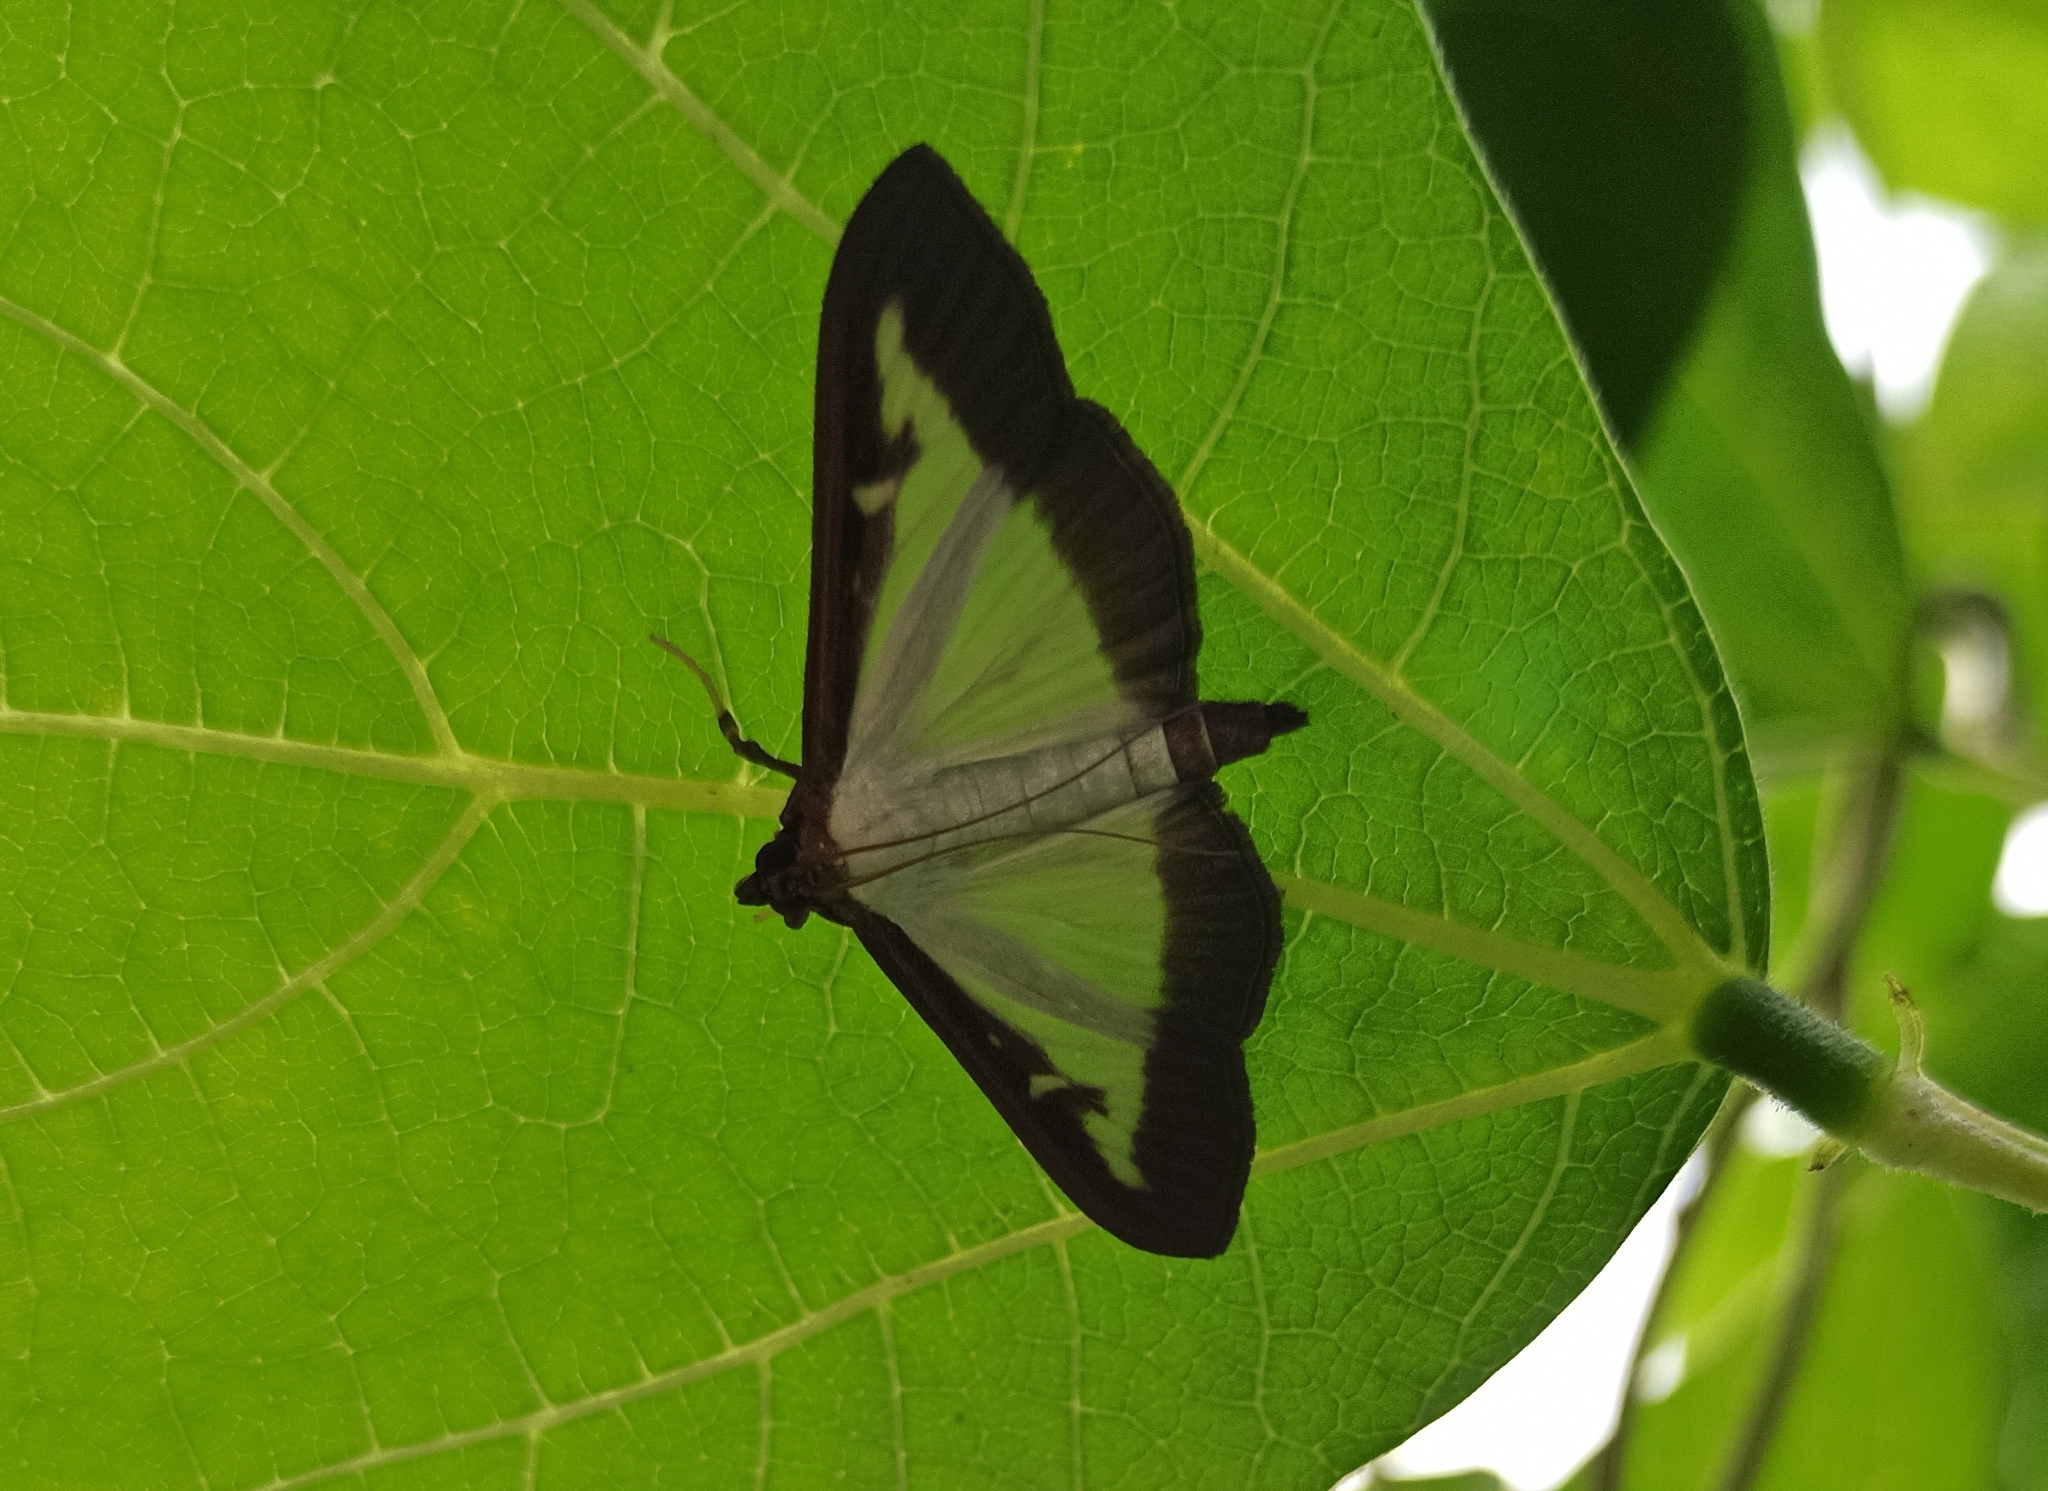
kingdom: Animalia
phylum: Arthropoda
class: Insecta
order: Lepidoptera
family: Crambidae
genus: Cydalima
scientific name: Cydalima perspectalis
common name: Box tree moth
